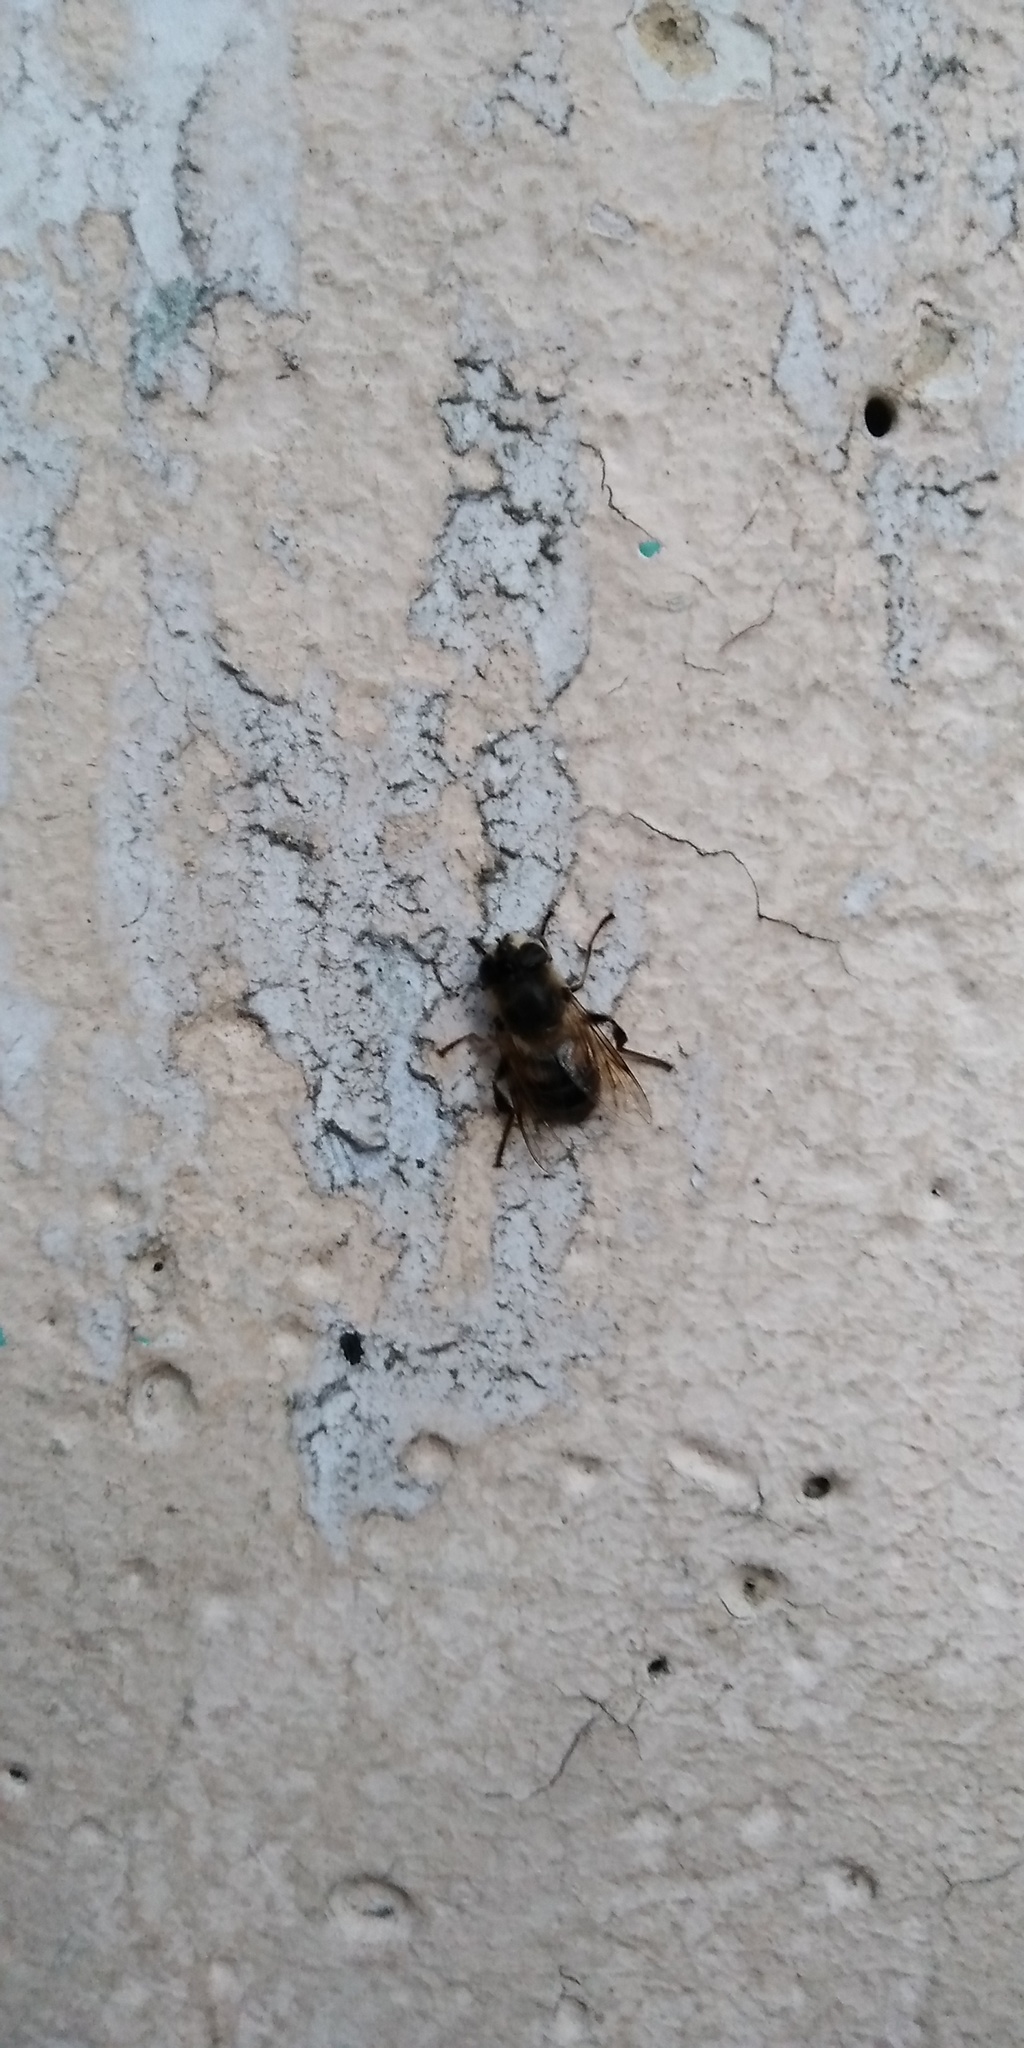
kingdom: Animalia
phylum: Arthropoda
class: Insecta
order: Diptera
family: Syrphidae
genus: Eristalis
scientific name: Eristalis tenax
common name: Drone fly
